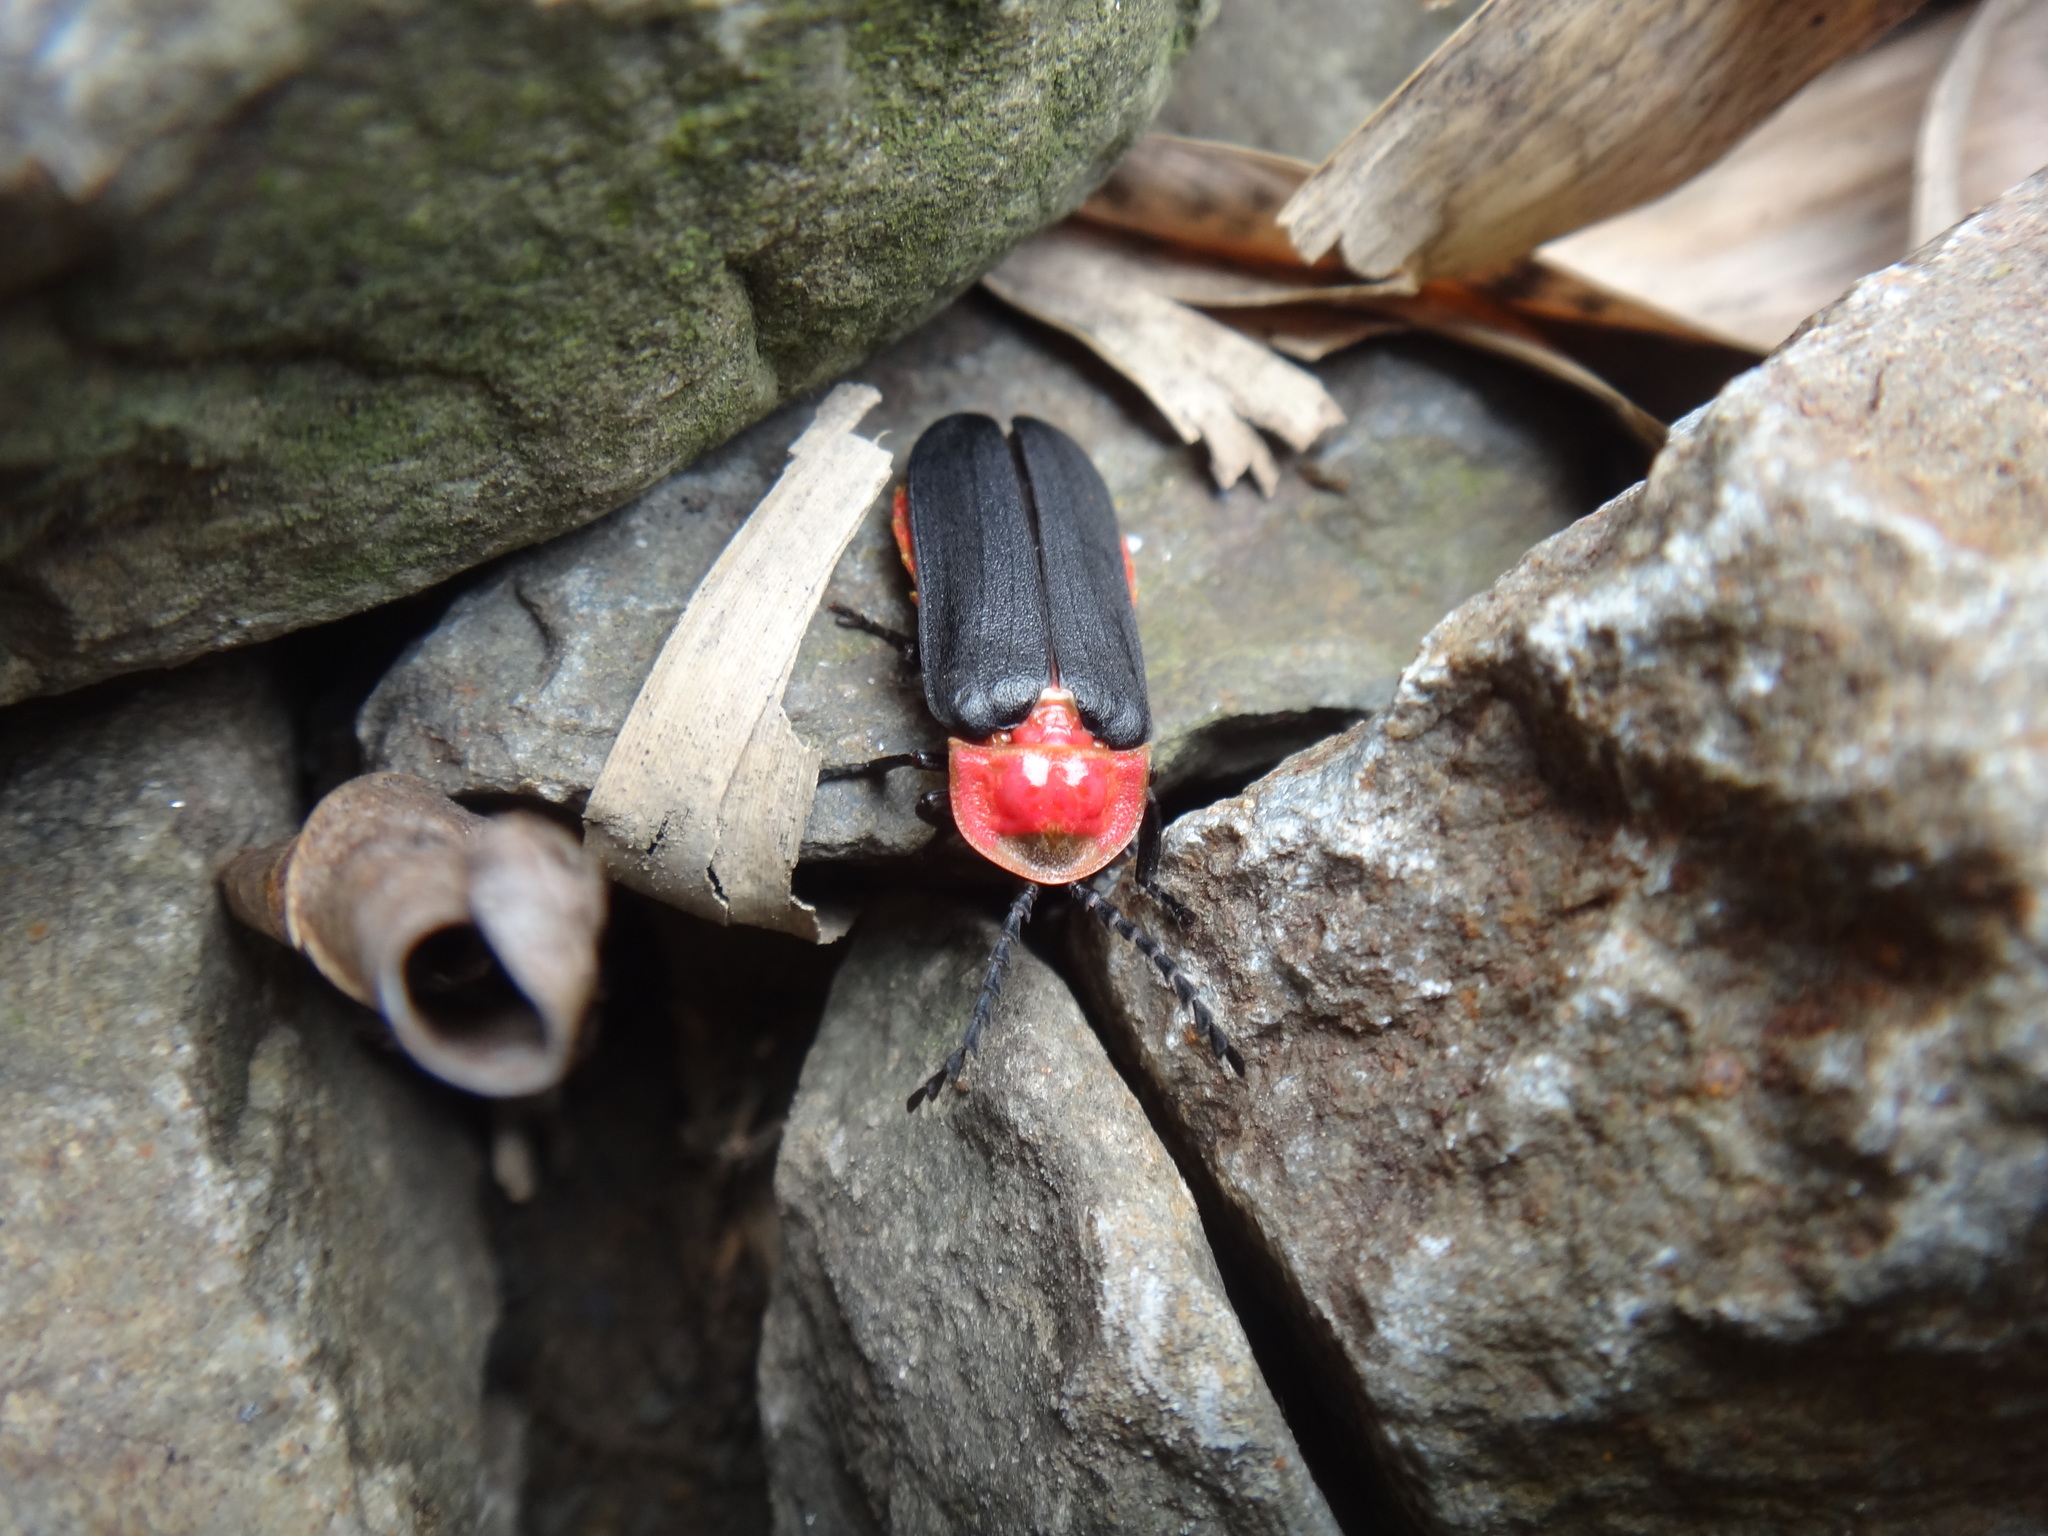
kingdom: Animalia
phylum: Arthropoda
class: Insecta
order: Coleoptera
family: Lampyridae
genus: Vesta
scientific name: Vesta impressicollis
